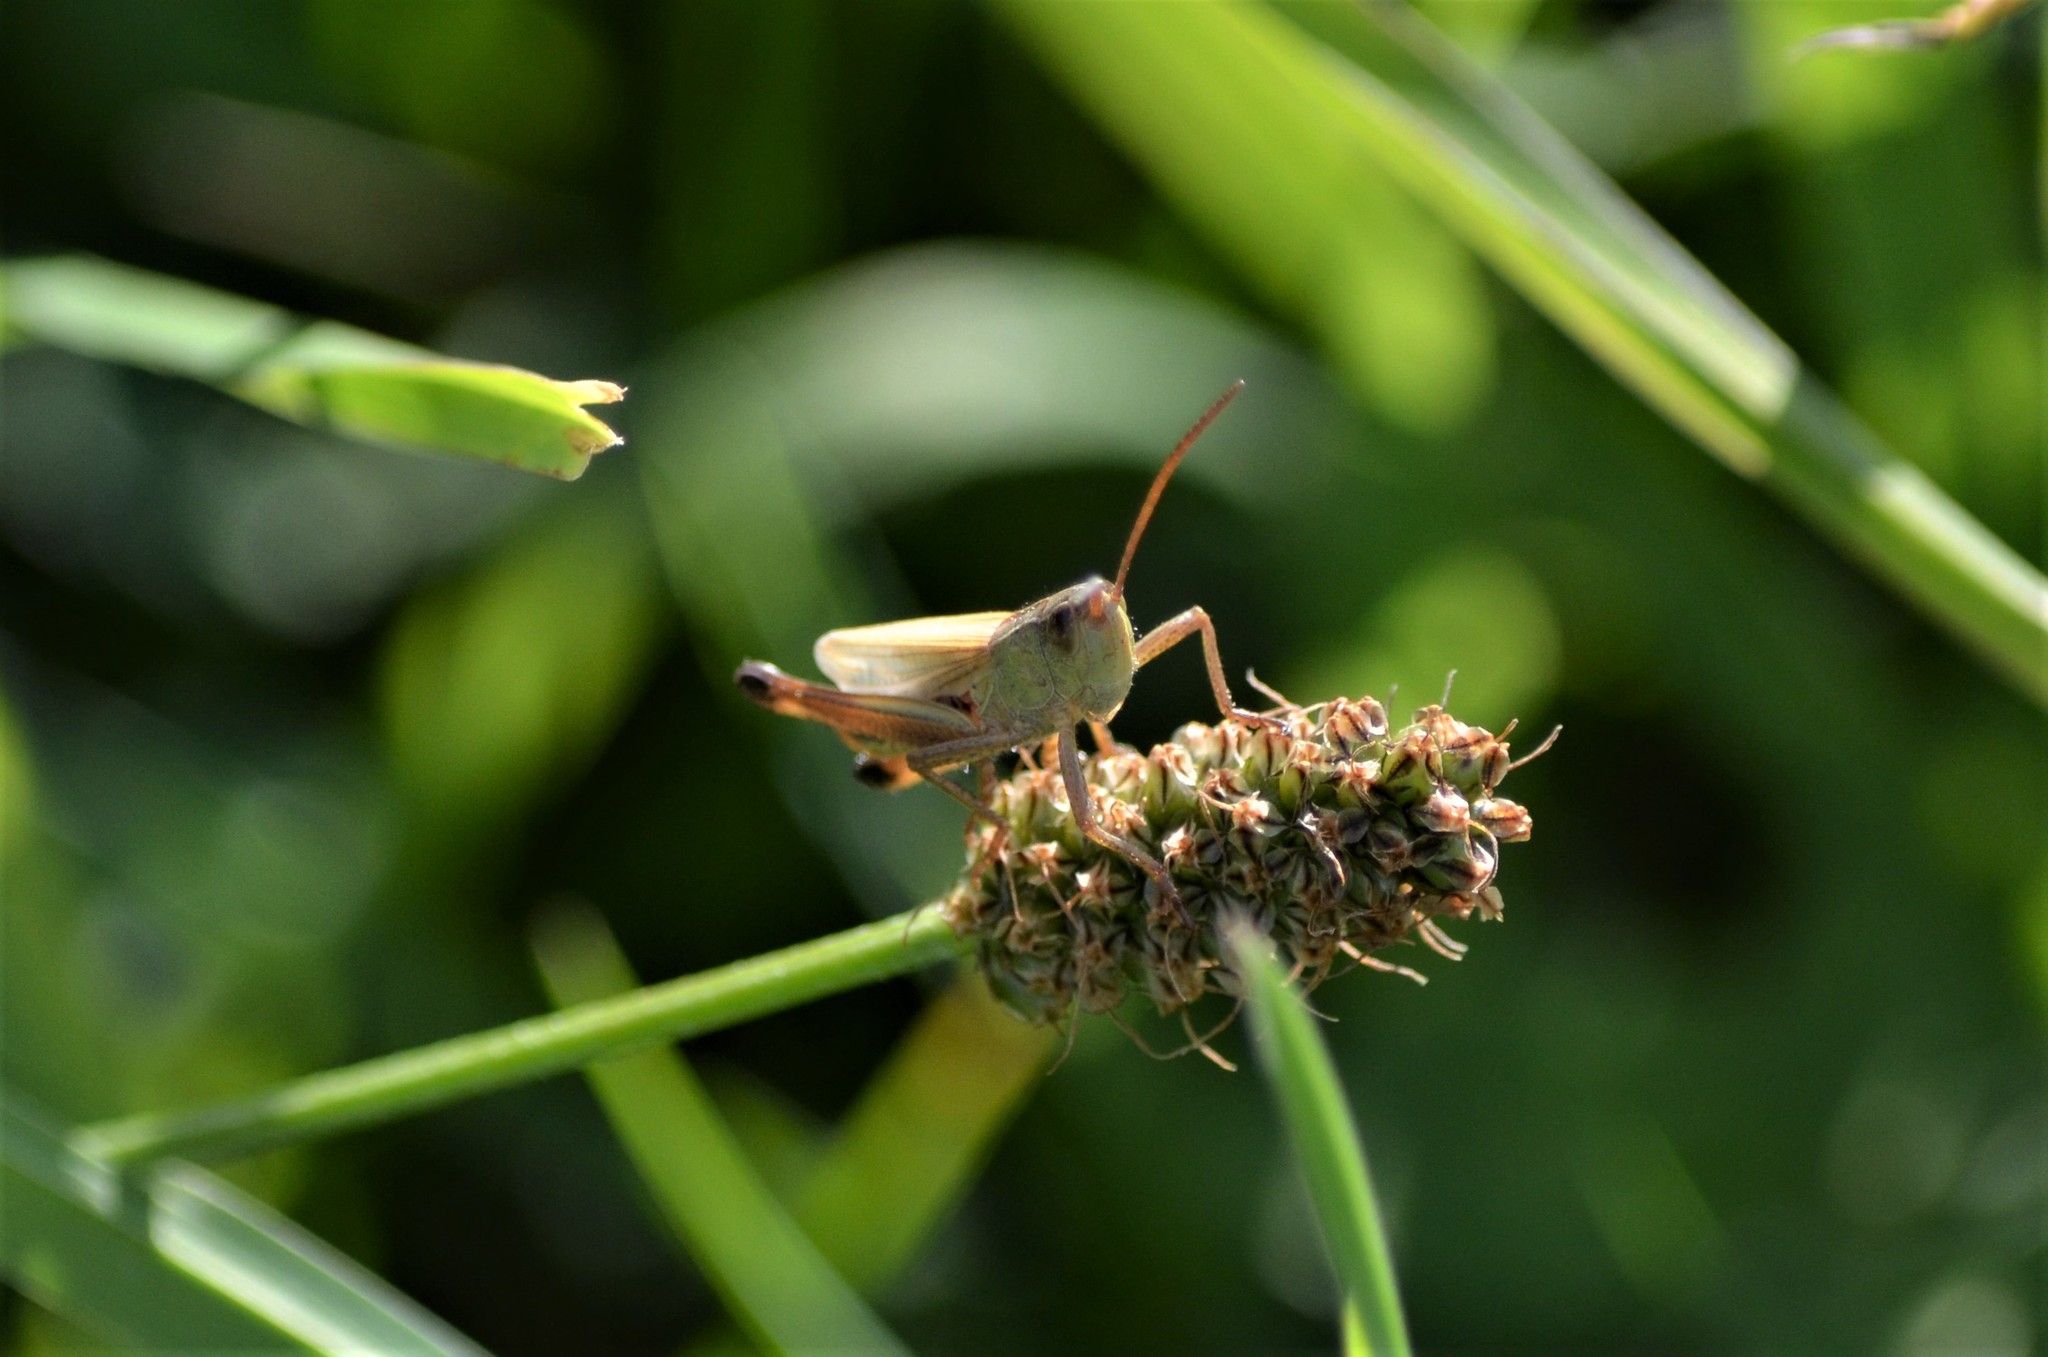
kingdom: Animalia
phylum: Arthropoda
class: Insecta
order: Orthoptera
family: Acrididae
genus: Pseudochorthippus
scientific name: Pseudochorthippus parallelus
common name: Meadow grasshopper
